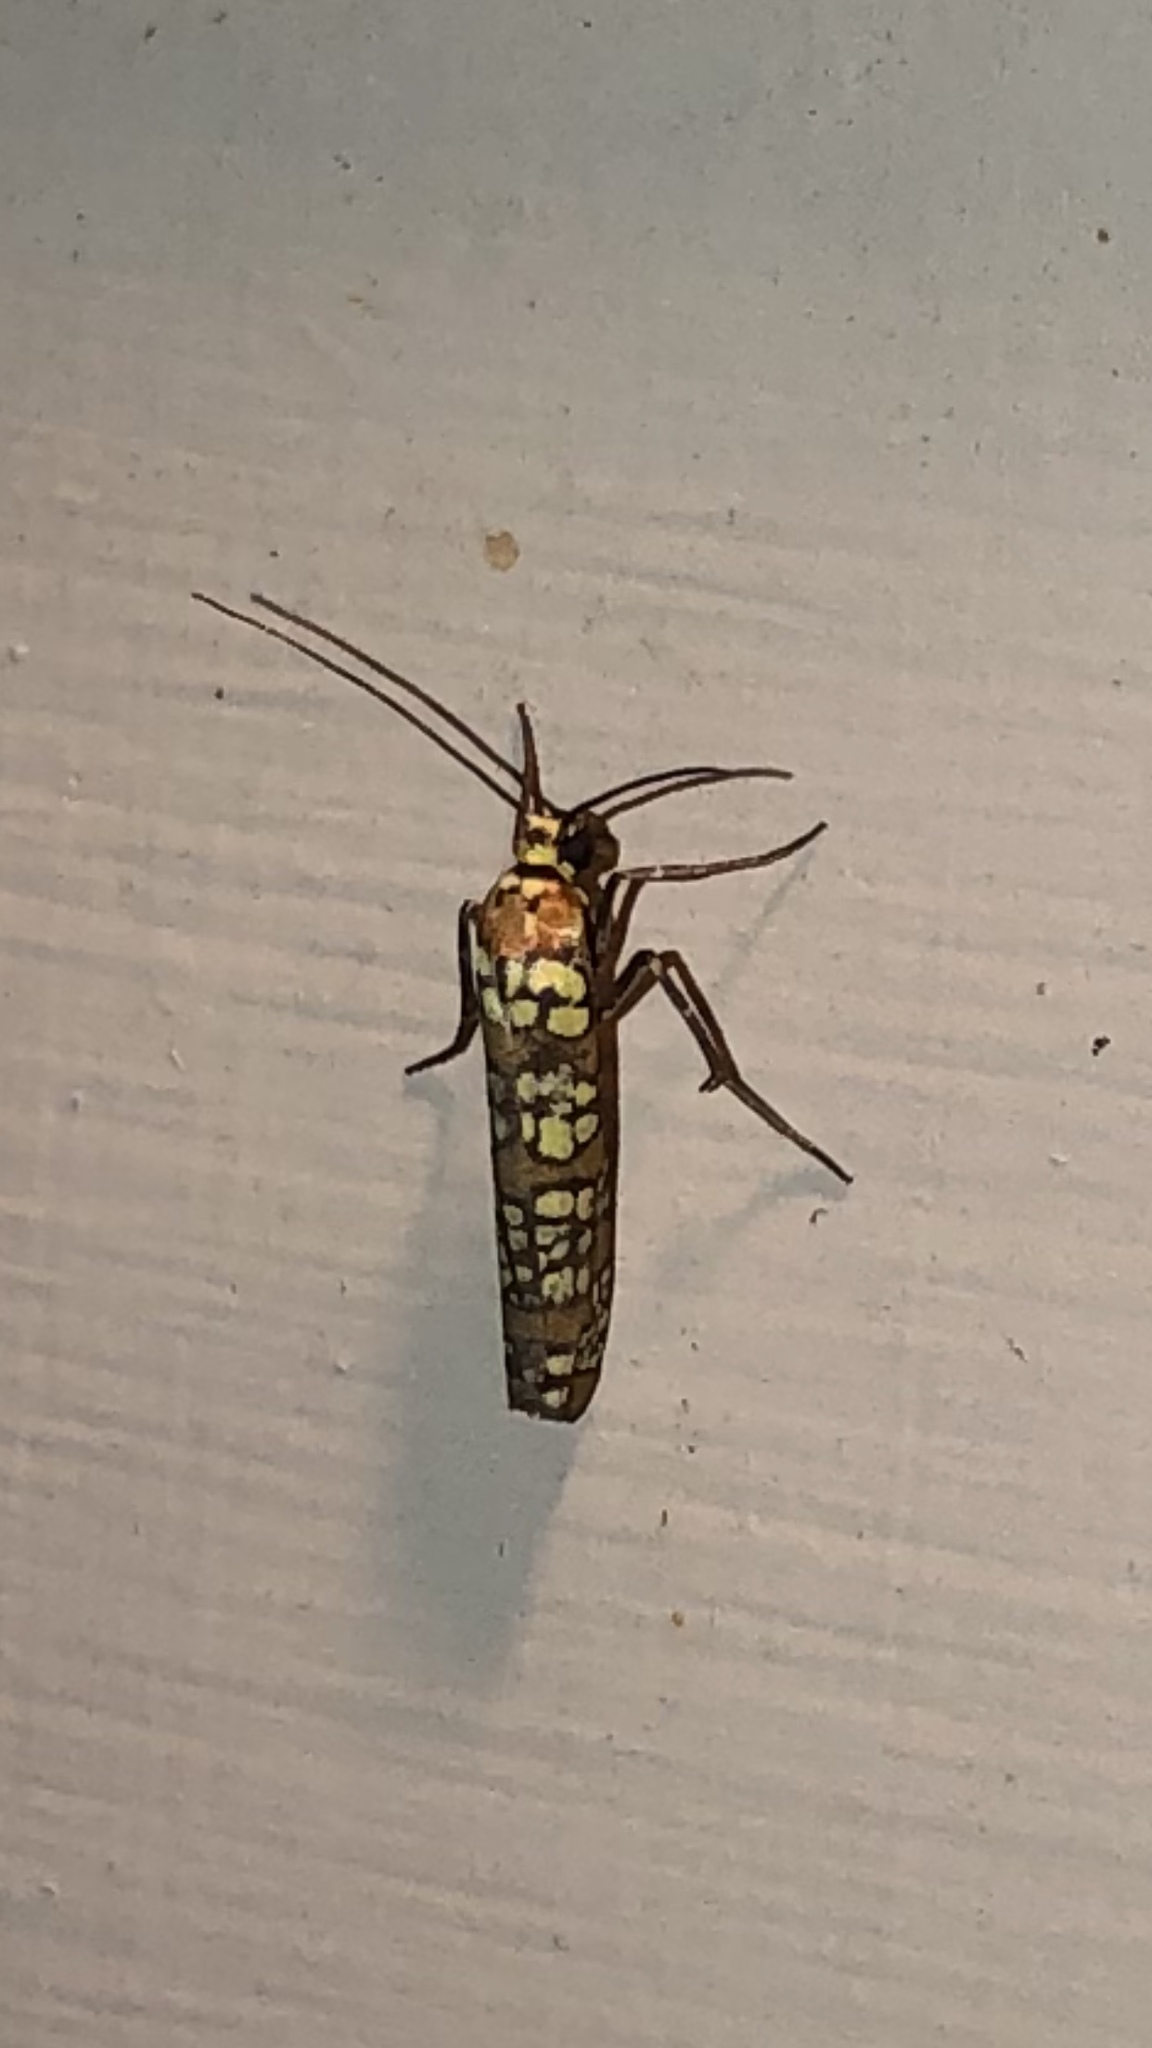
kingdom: Animalia
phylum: Arthropoda
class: Insecta
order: Lepidoptera
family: Attevidae
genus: Atteva
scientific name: Atteva punctella
